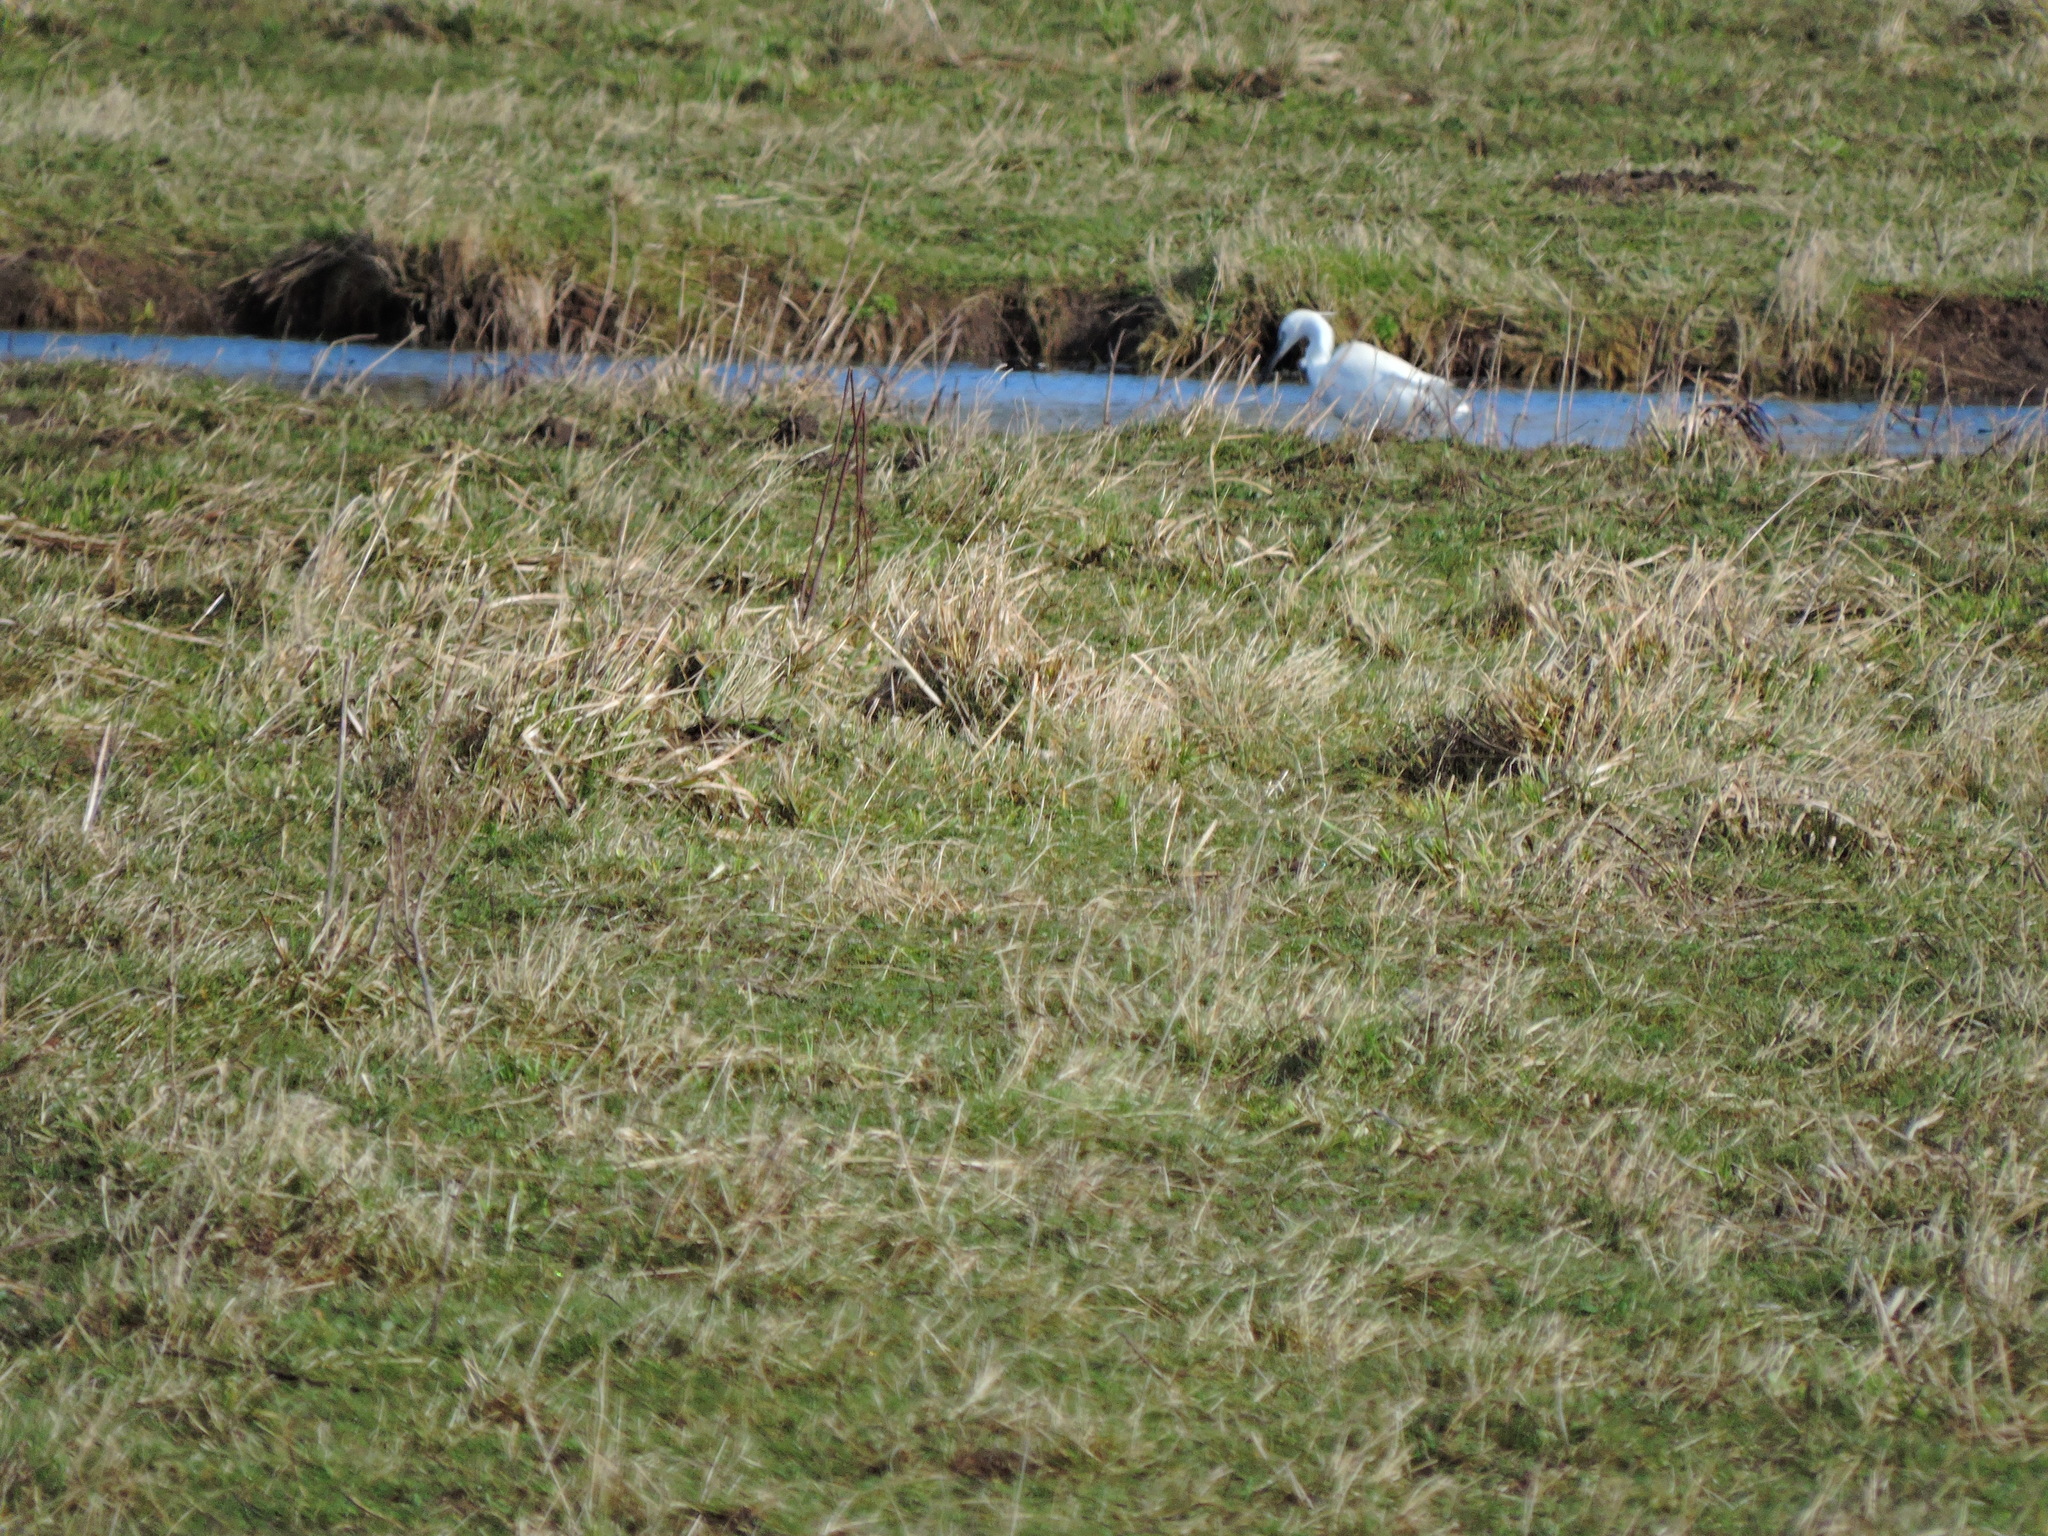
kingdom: Animalia
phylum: Chordata
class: Aves
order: Pelecaniformes
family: Ardeidae
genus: Egretta
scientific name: Egretta garzetta
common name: Little egret
